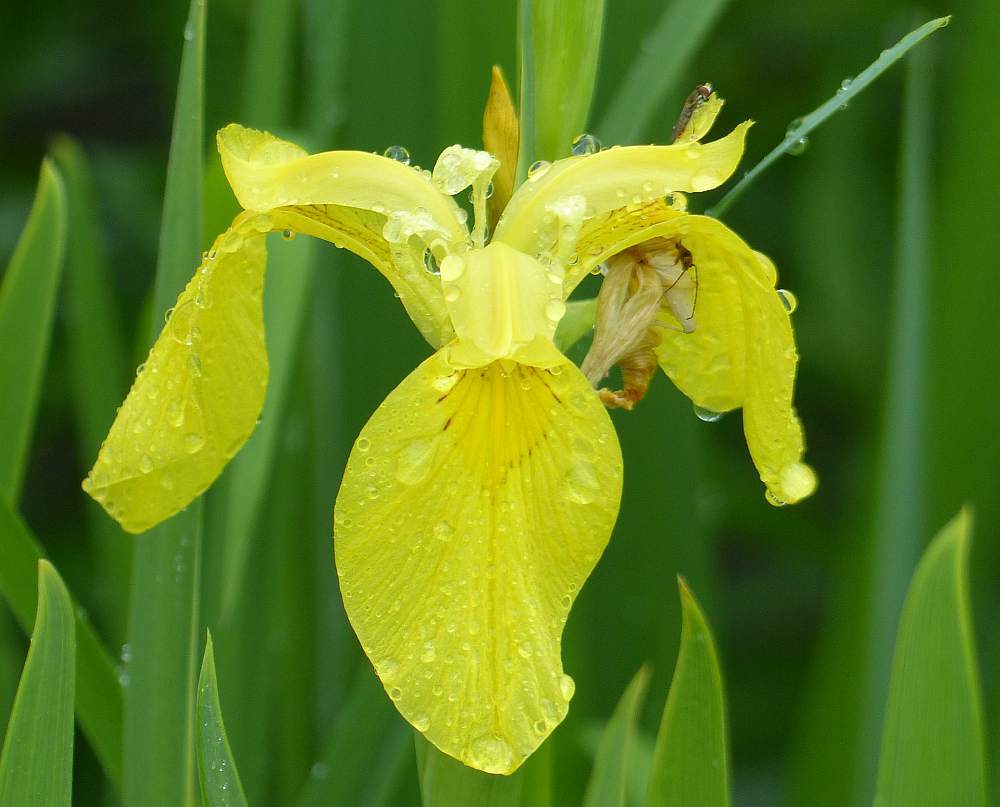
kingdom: Plantae
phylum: Tracheophyta
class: Liliopsida
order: Asparagales
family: Iridaceae
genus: Iris
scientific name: Iris pseudacorus
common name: Yellow flag
